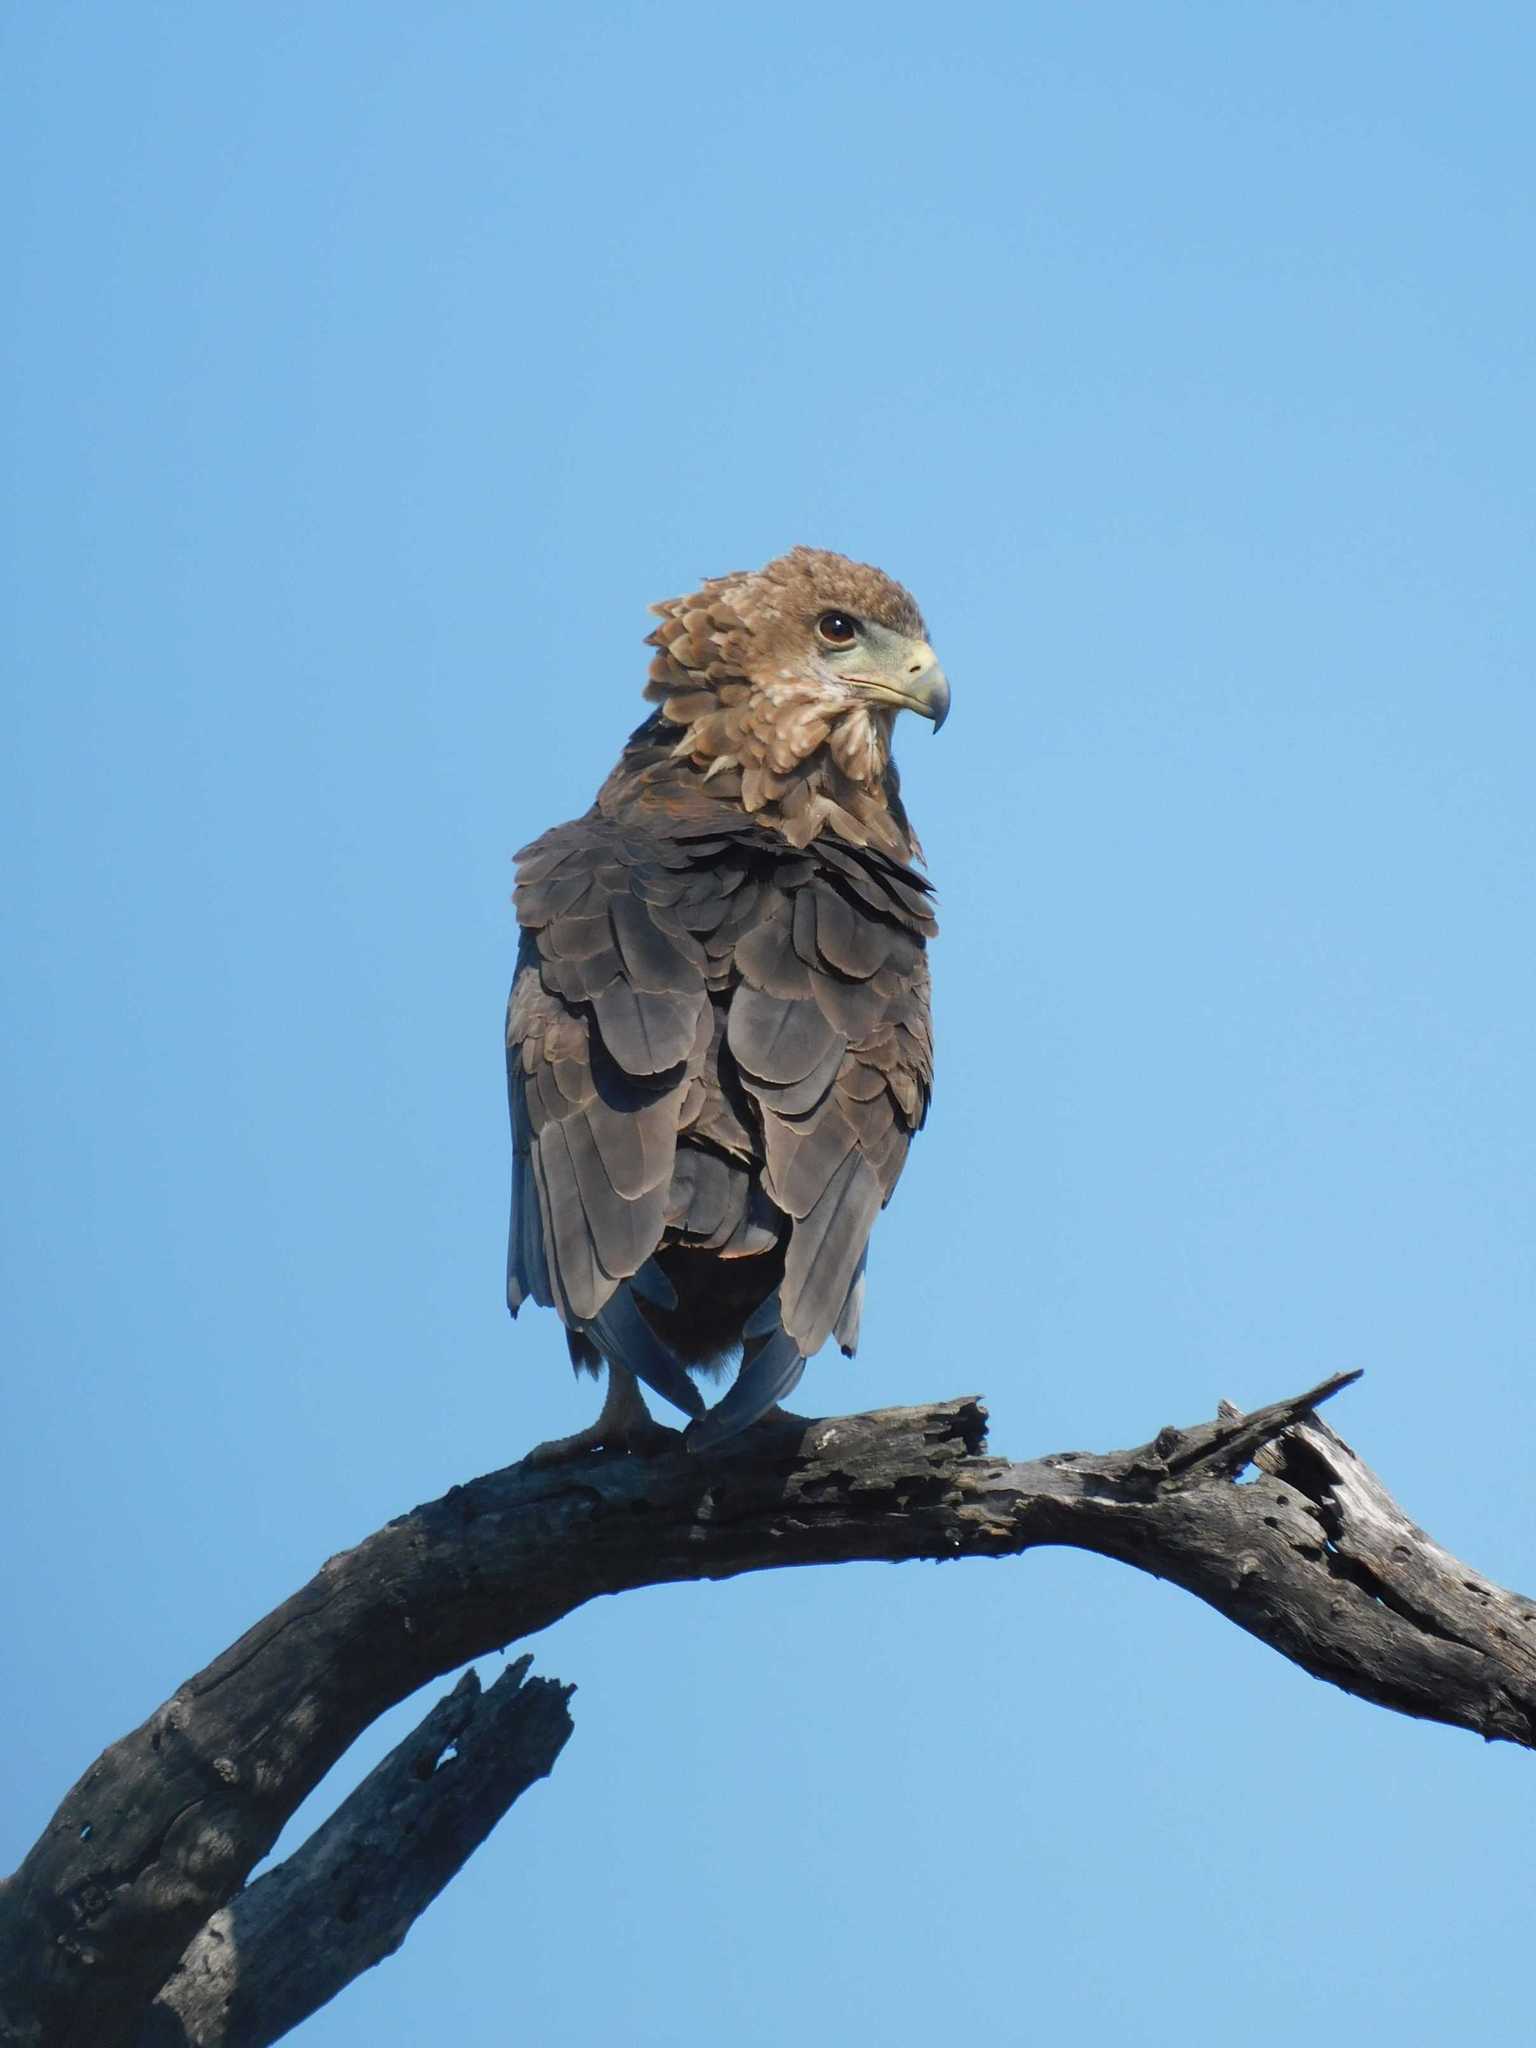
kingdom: Animalia
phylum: Chordata
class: Aves
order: Accipitriformes
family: Accipitridae
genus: Terathopius
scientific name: Terathopius ecaudatus
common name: Bateleur
